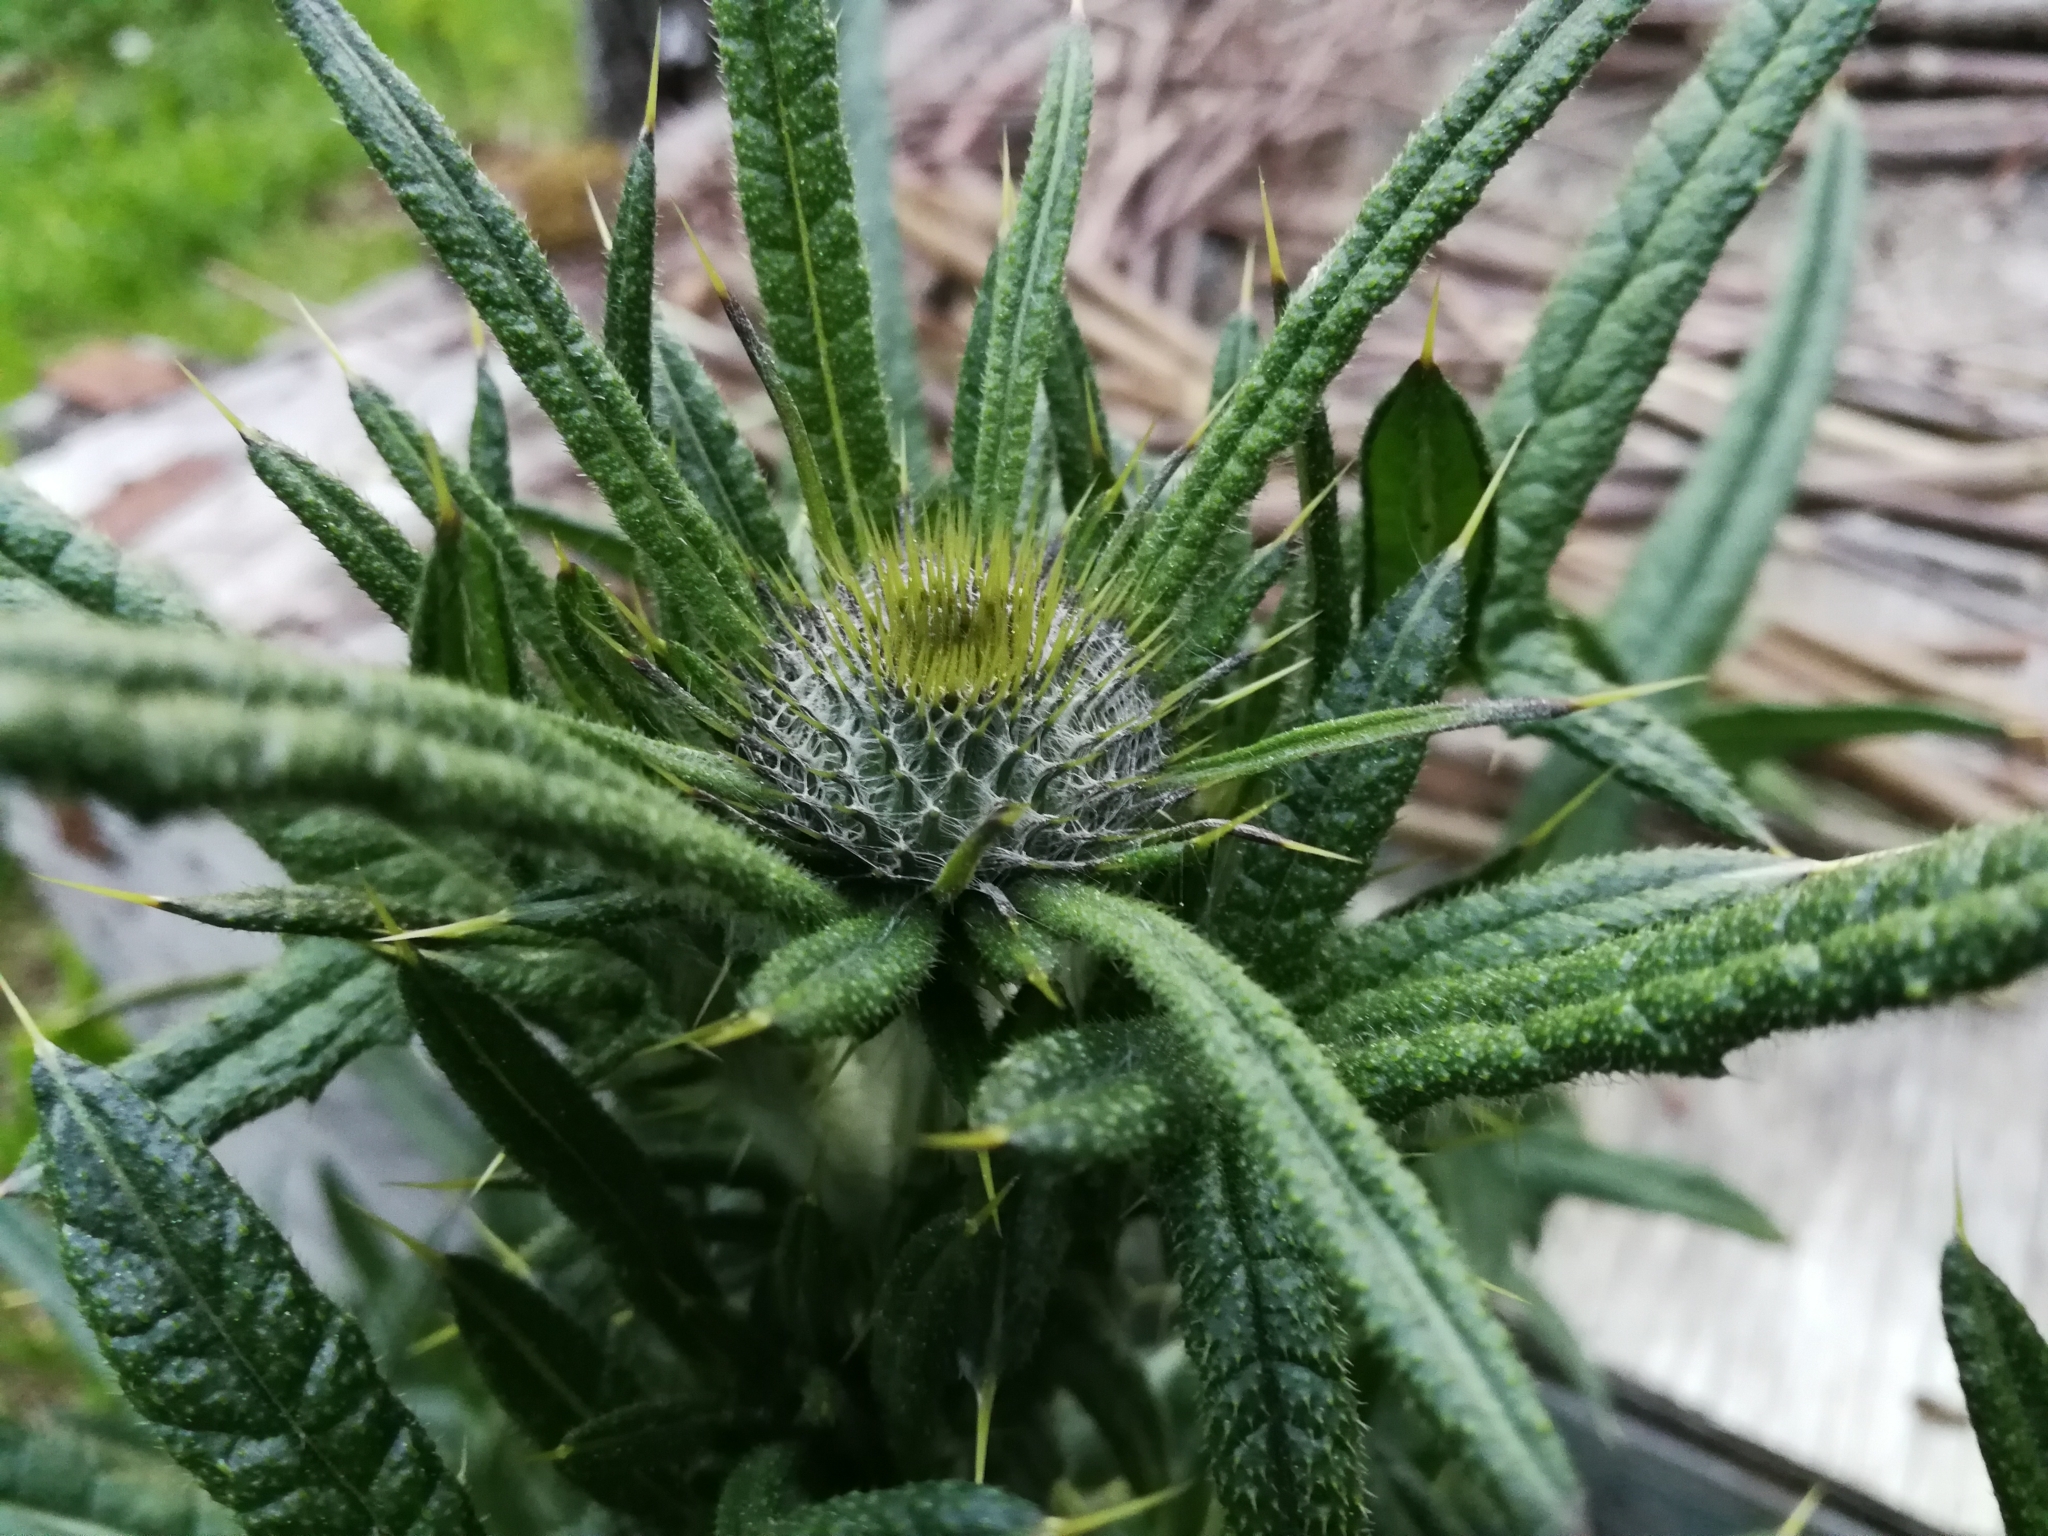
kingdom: Plantae
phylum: Tracheophyta
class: Magnoliopsida
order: Asterales
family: Asteraceae
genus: Cirsium
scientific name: Cirsium vulgare
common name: Bull thistle
